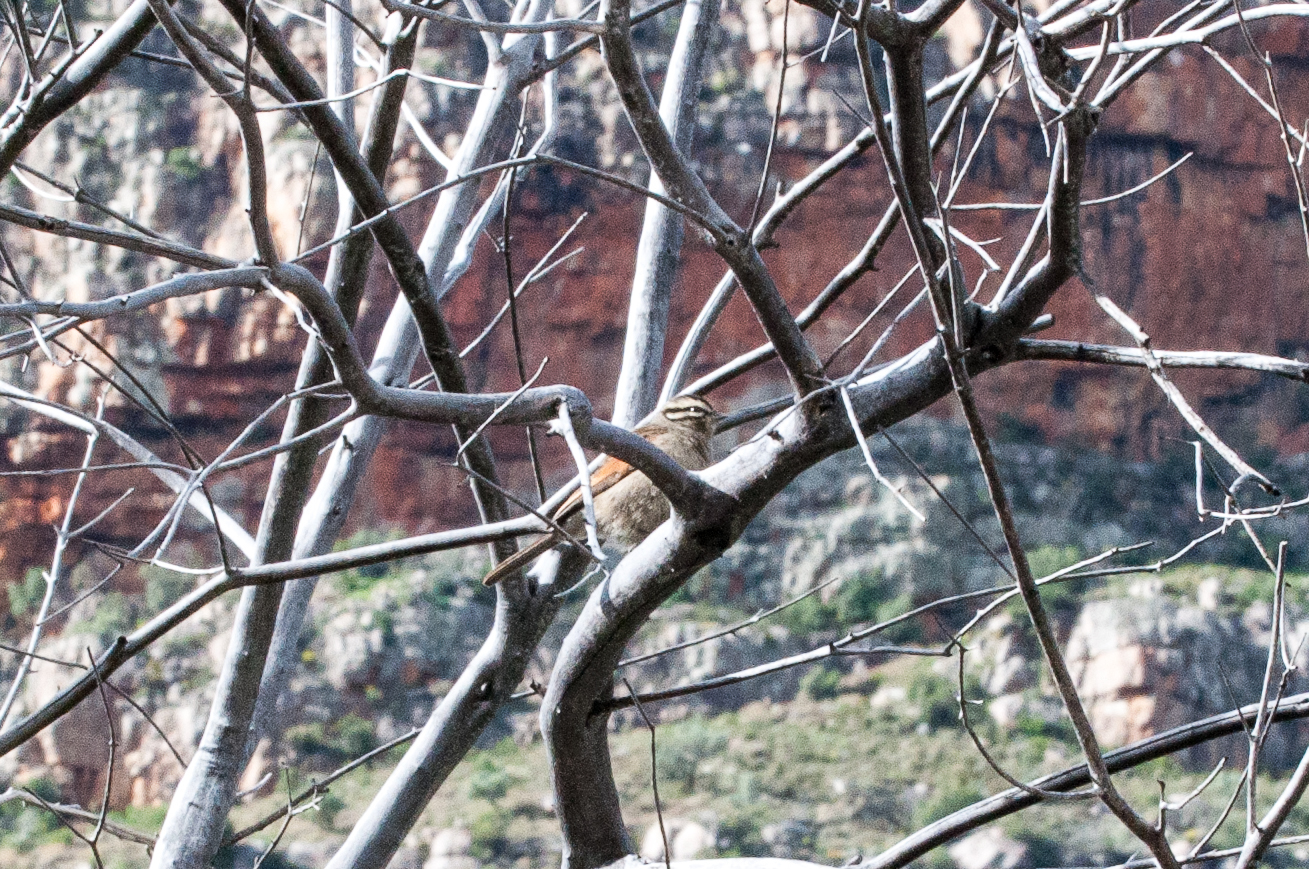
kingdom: Animalia
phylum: Chordata
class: Aves
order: Passeriformes
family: Emberizidae
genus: Emberiza
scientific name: Emberiza capensis
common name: Cape bunting
